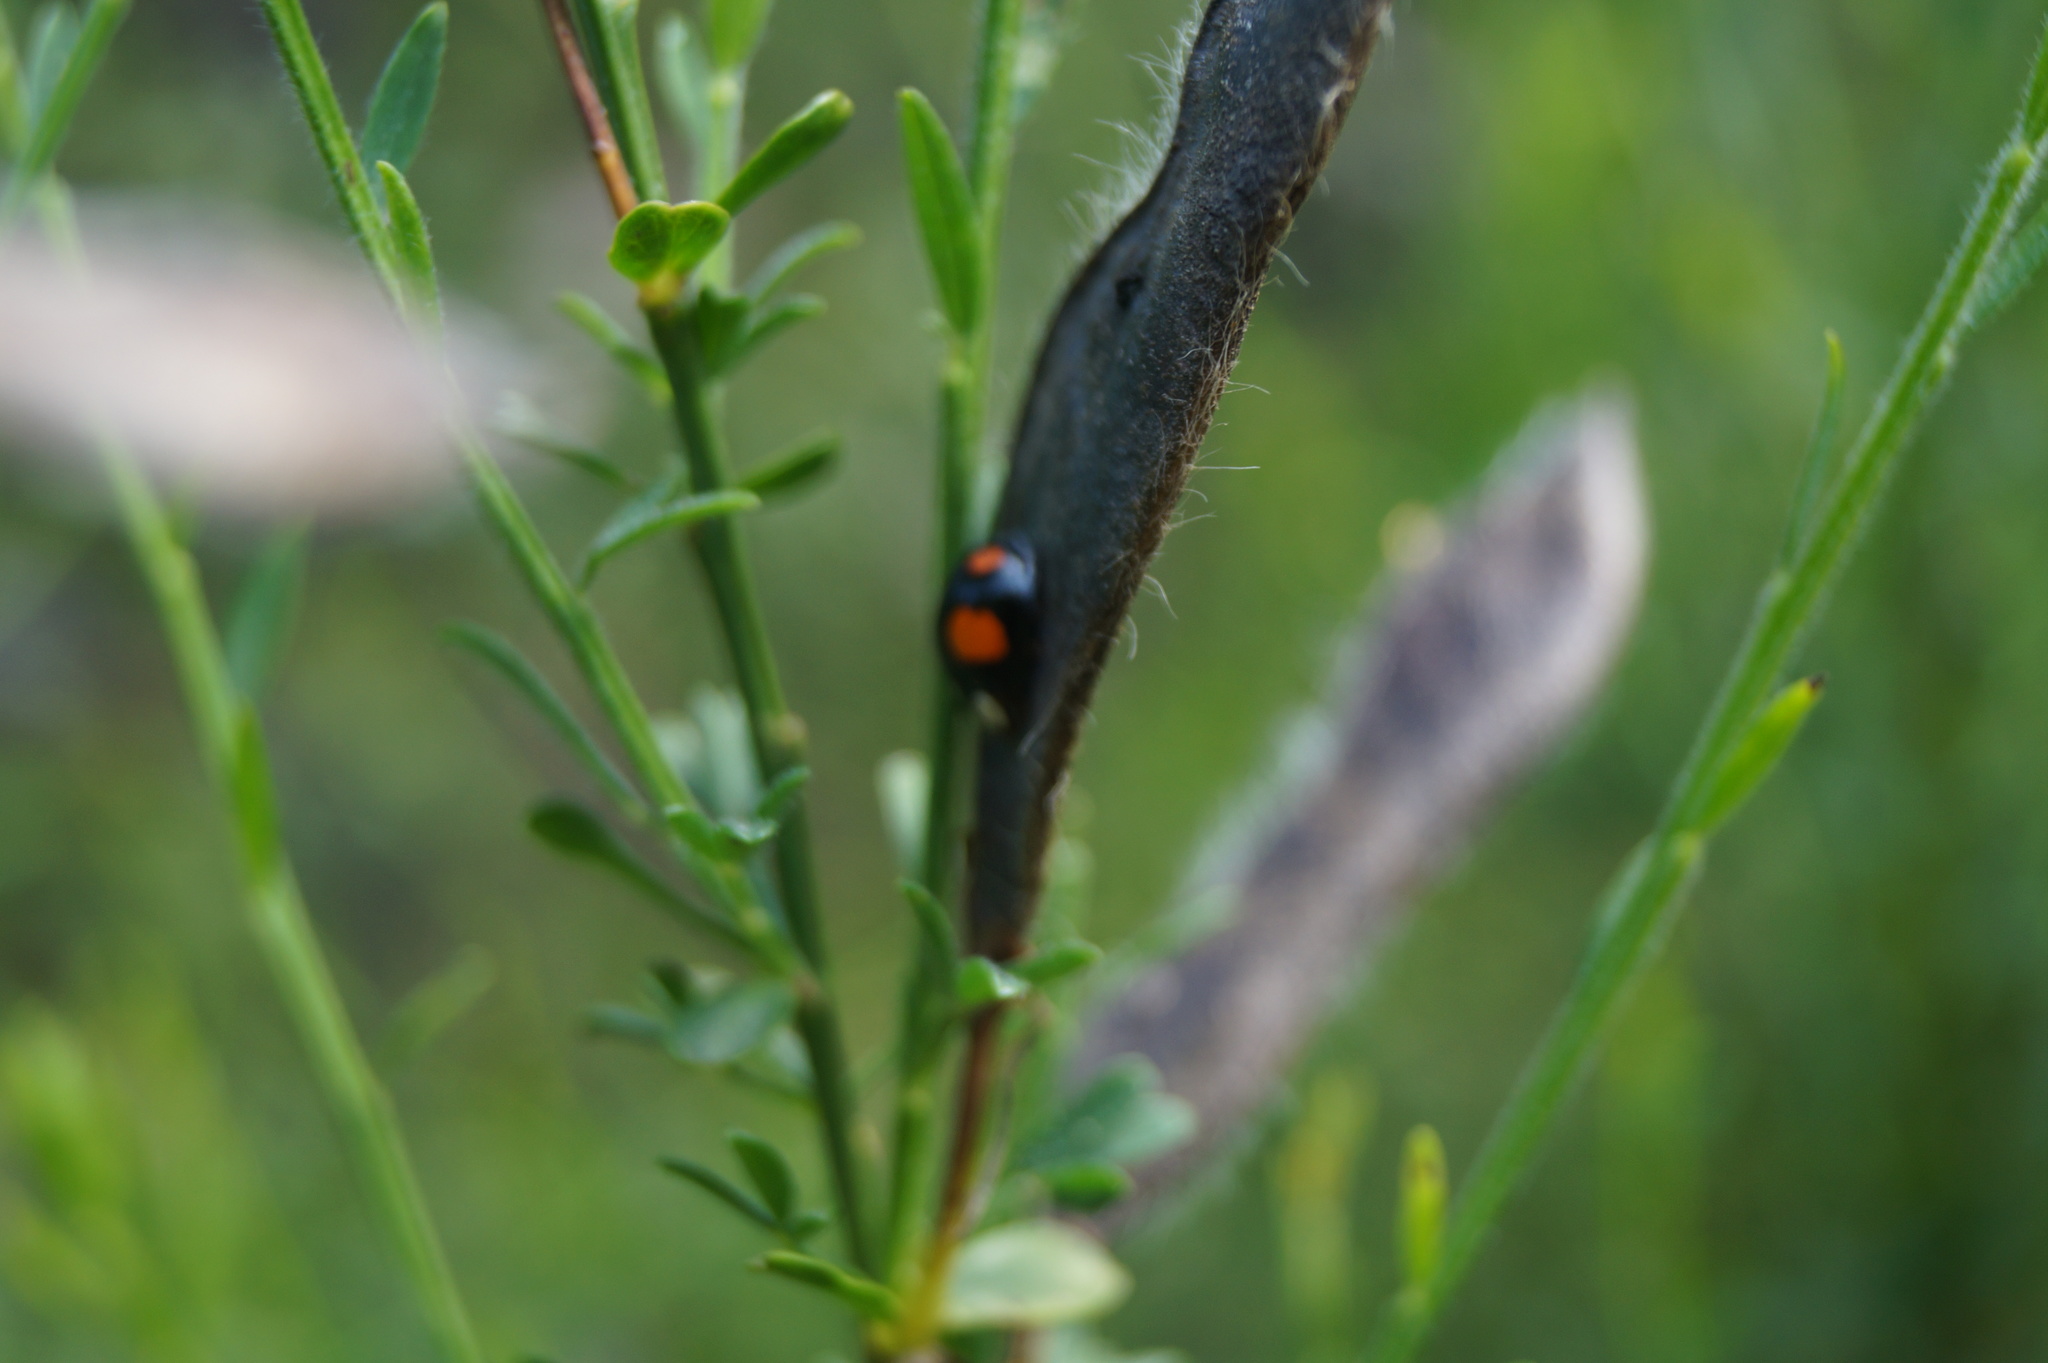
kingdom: Animalia
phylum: Arthropoda
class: Insecta
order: Coleoptera
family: Coccinellidae
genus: Harmonia
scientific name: Harmonia axyridis
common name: Harlequin ladybird
